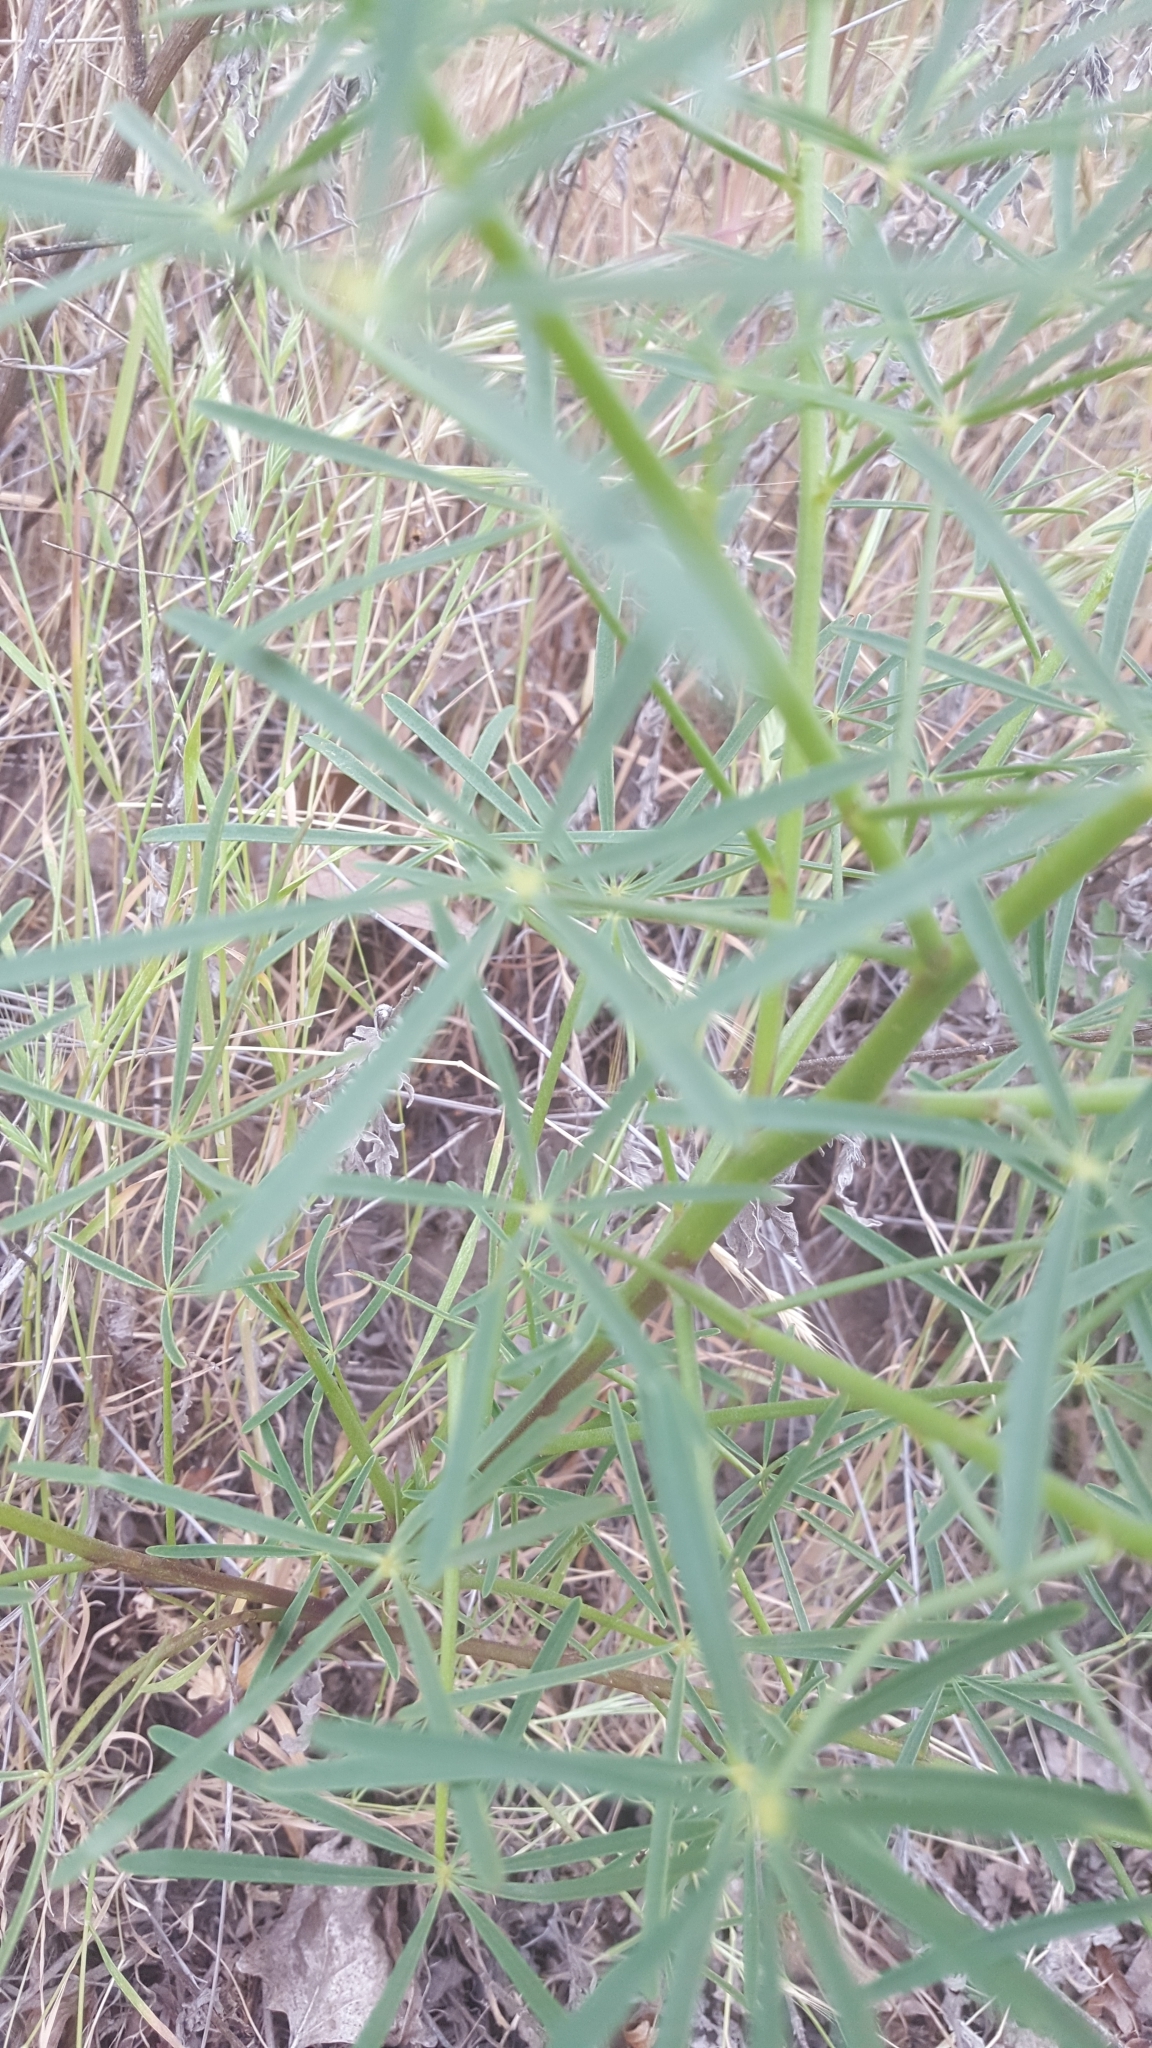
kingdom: Plantae
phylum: Tracheophyta
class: Magnoliopsida
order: Fabales
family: Fabaceae
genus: Lupinus
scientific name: Lupinus truncatus
